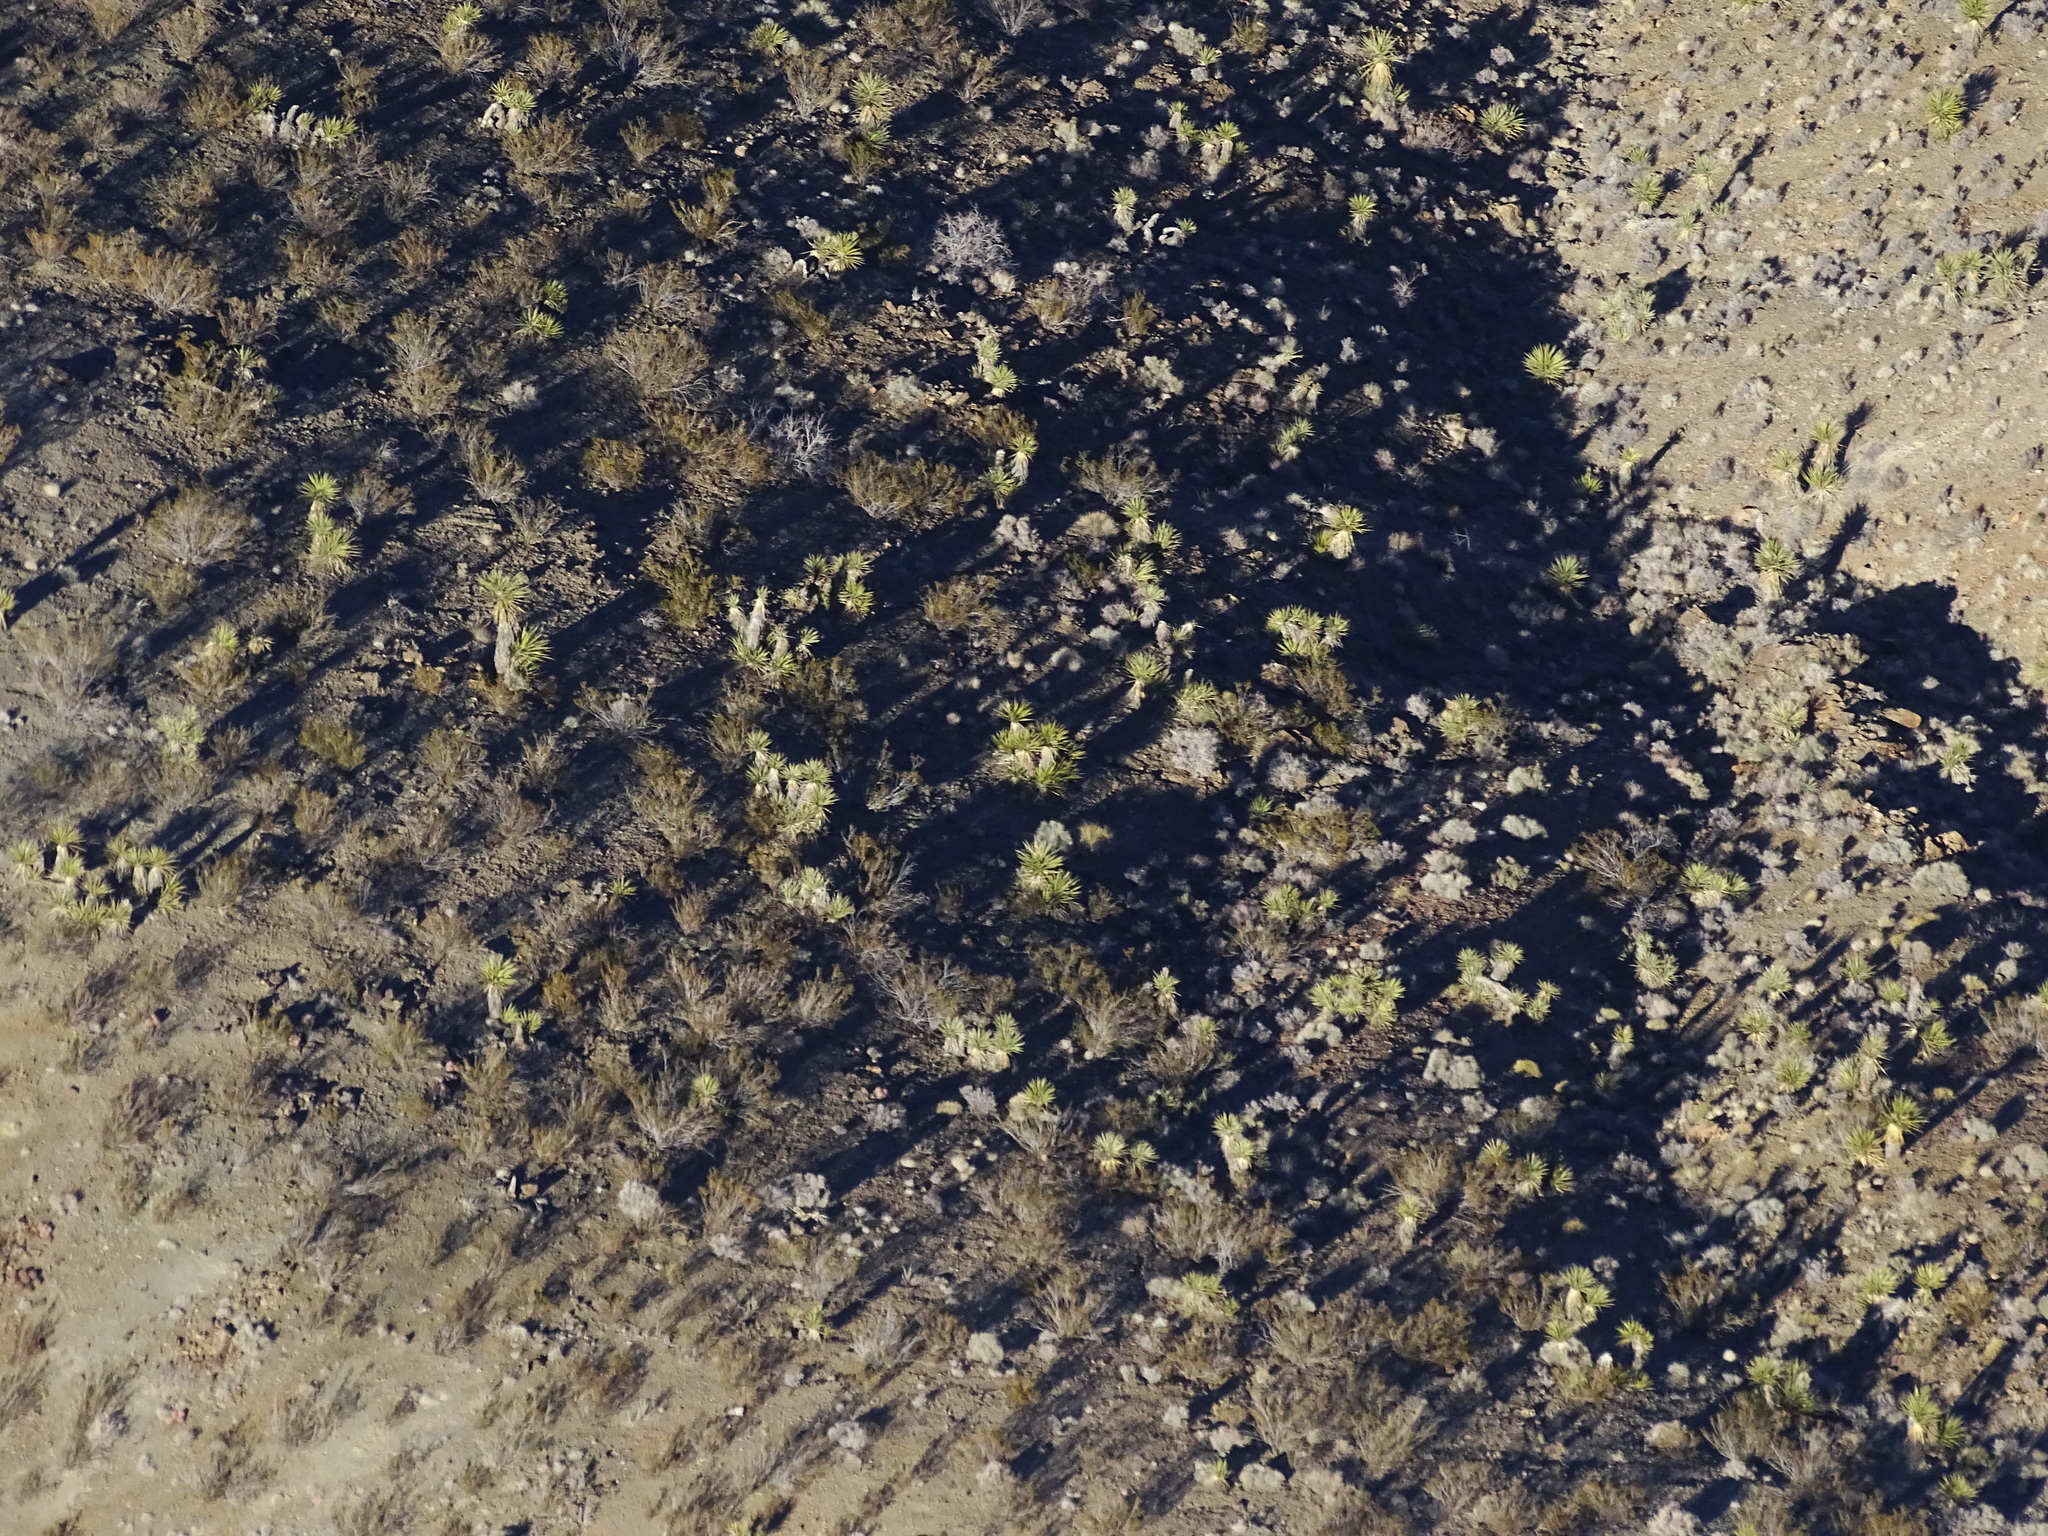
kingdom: Plantae
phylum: Tracheophyta
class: Liliopsida
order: Asparagales
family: Asparagaceae
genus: Yucca
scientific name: Yucca schidigera
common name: Mojave yucca
